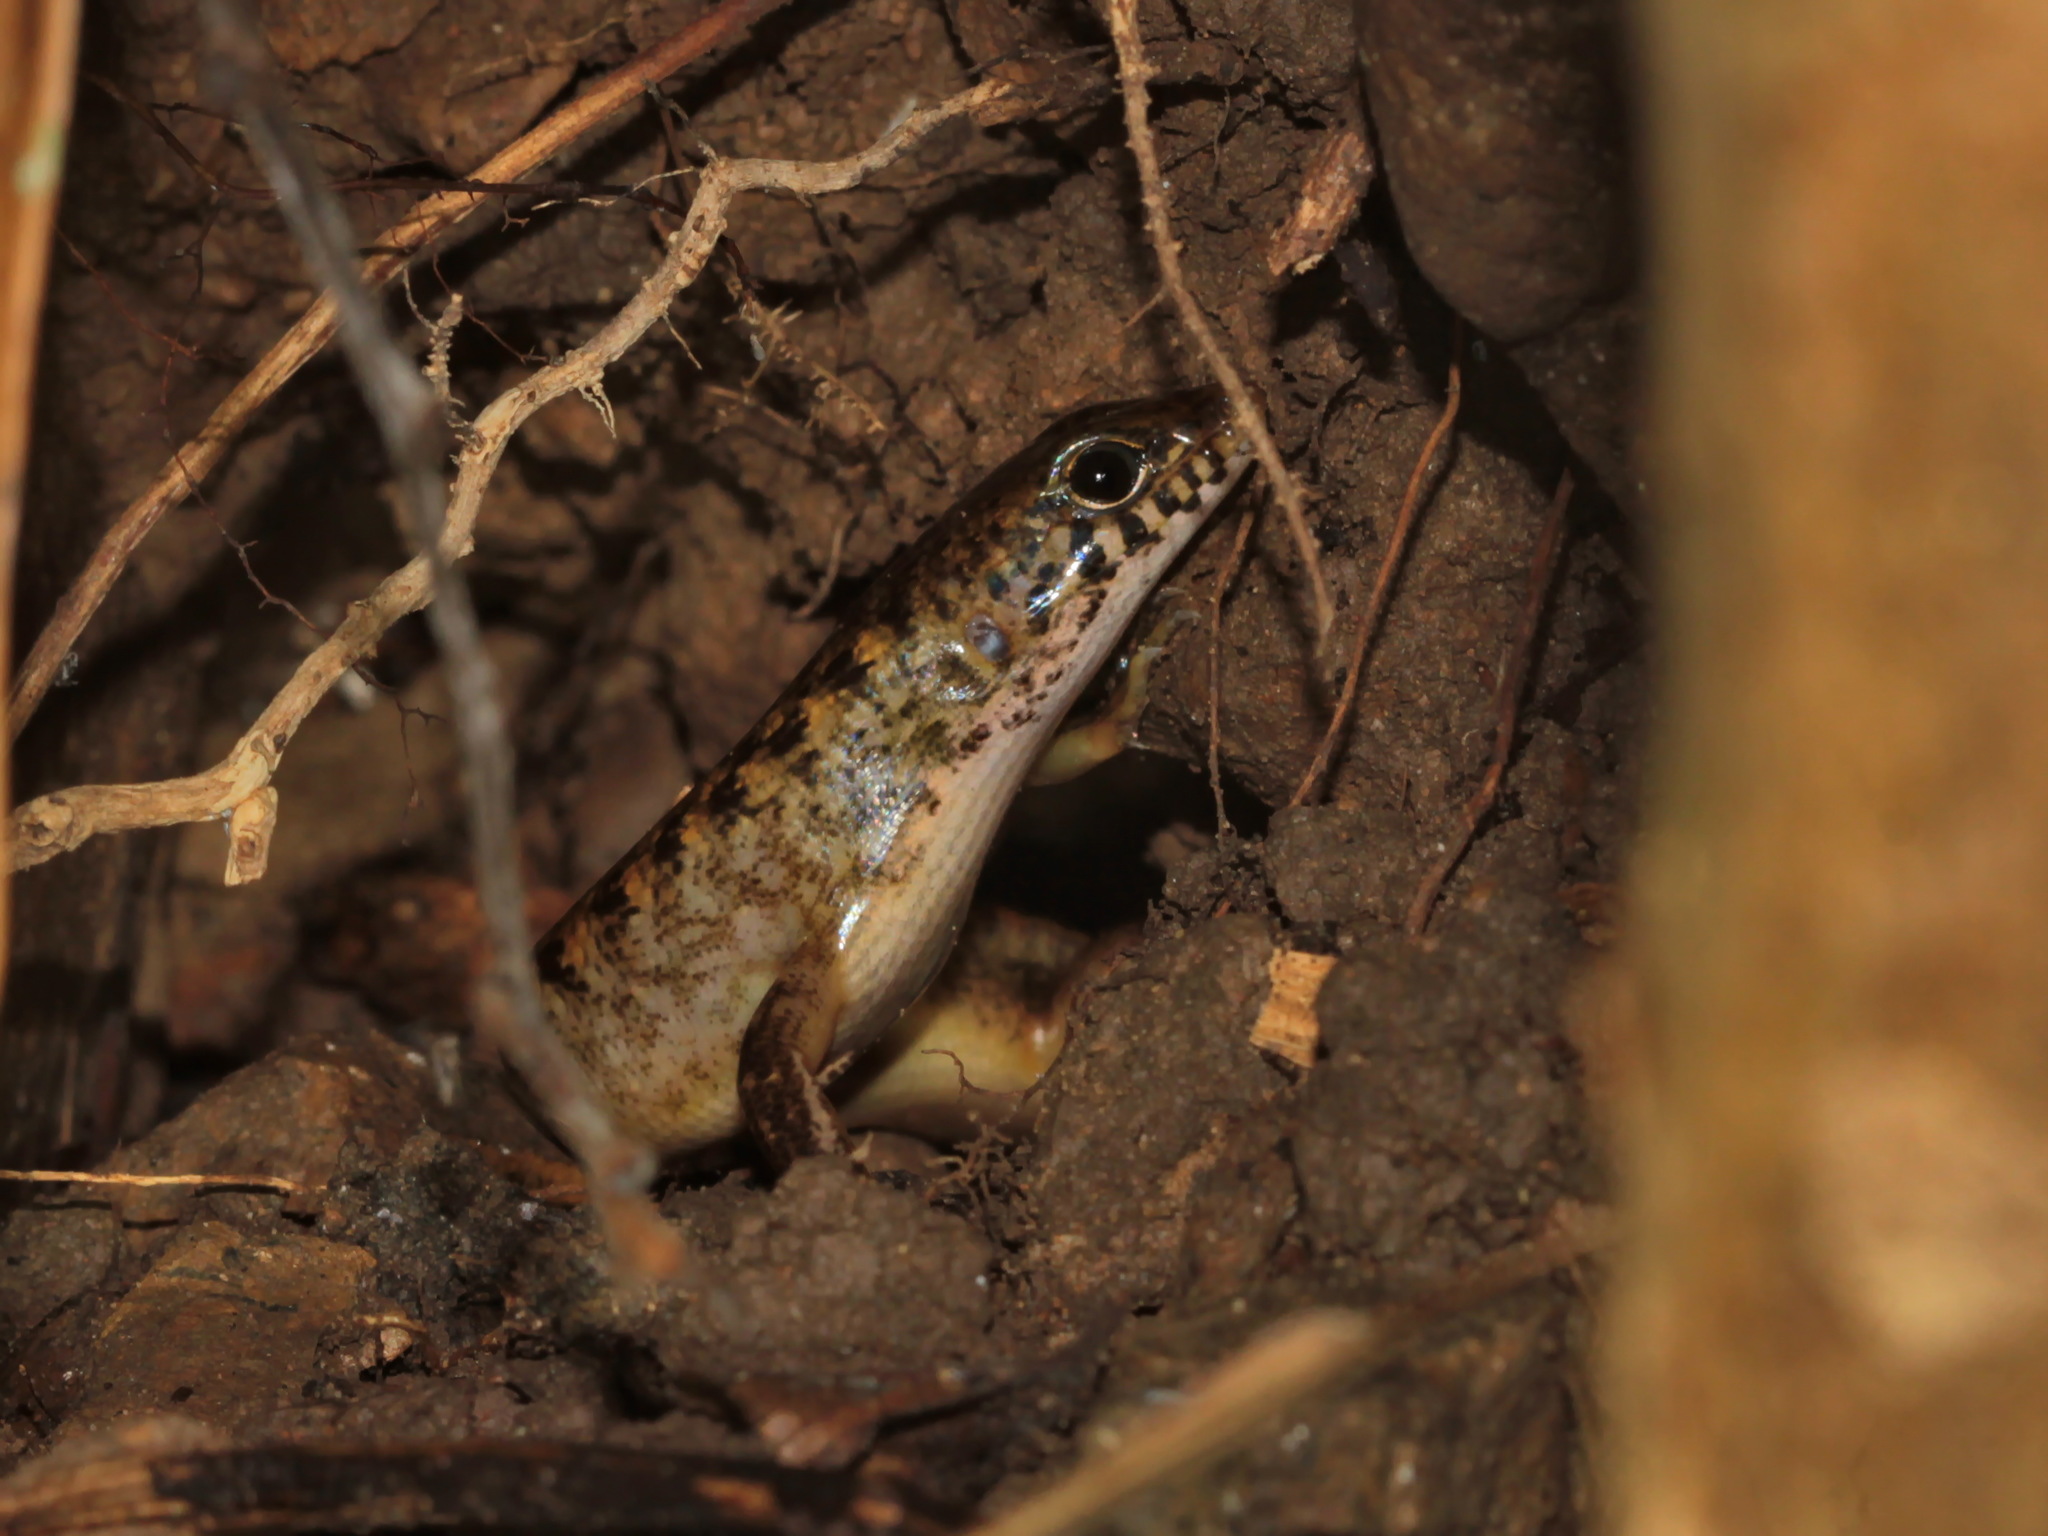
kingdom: Animalia
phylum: Chordata
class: Squamata
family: Scincidae
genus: Sphenomorphus
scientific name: Sphenomorphus tersus
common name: Nakhon si-thammarat forest skink
